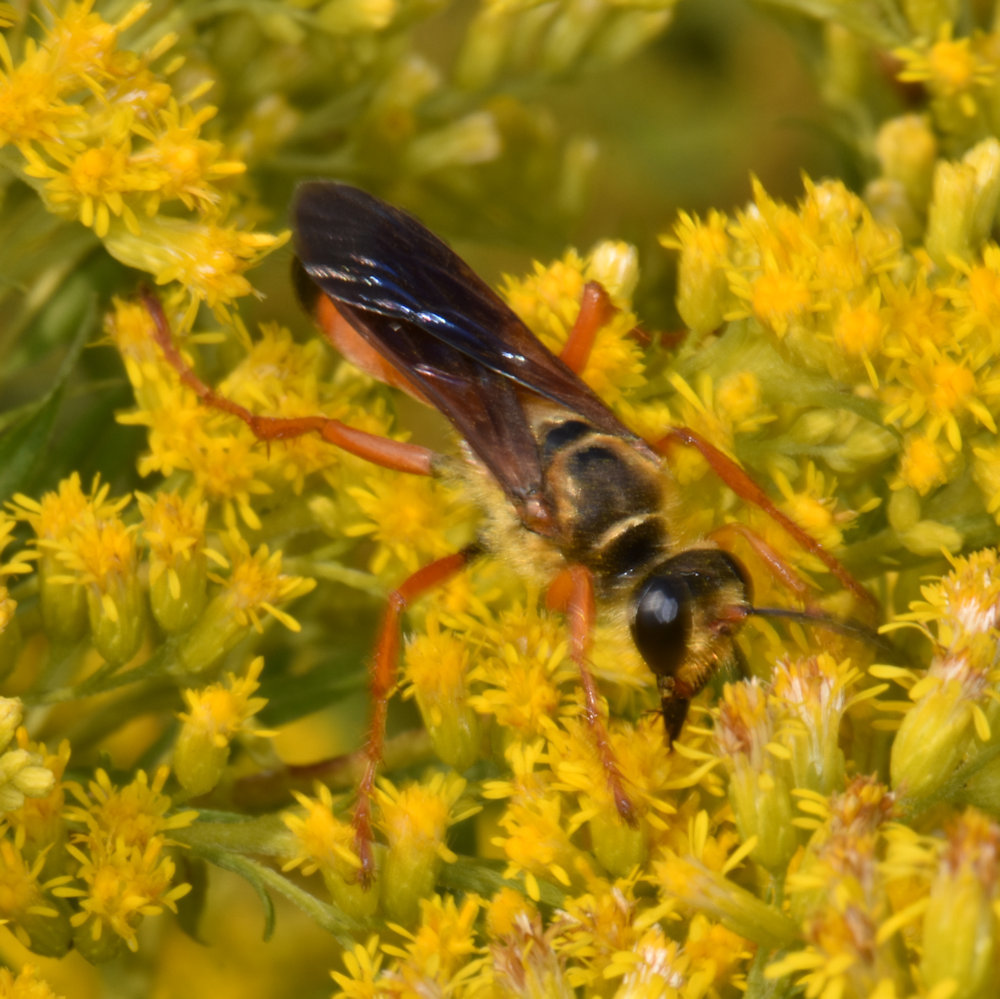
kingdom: Animalia
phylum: Arthropoda
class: Insecta
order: Hymenoptera
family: Sphecidae
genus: Sphex
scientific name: Sphex ichneumoneus
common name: Great golden digger wasp
